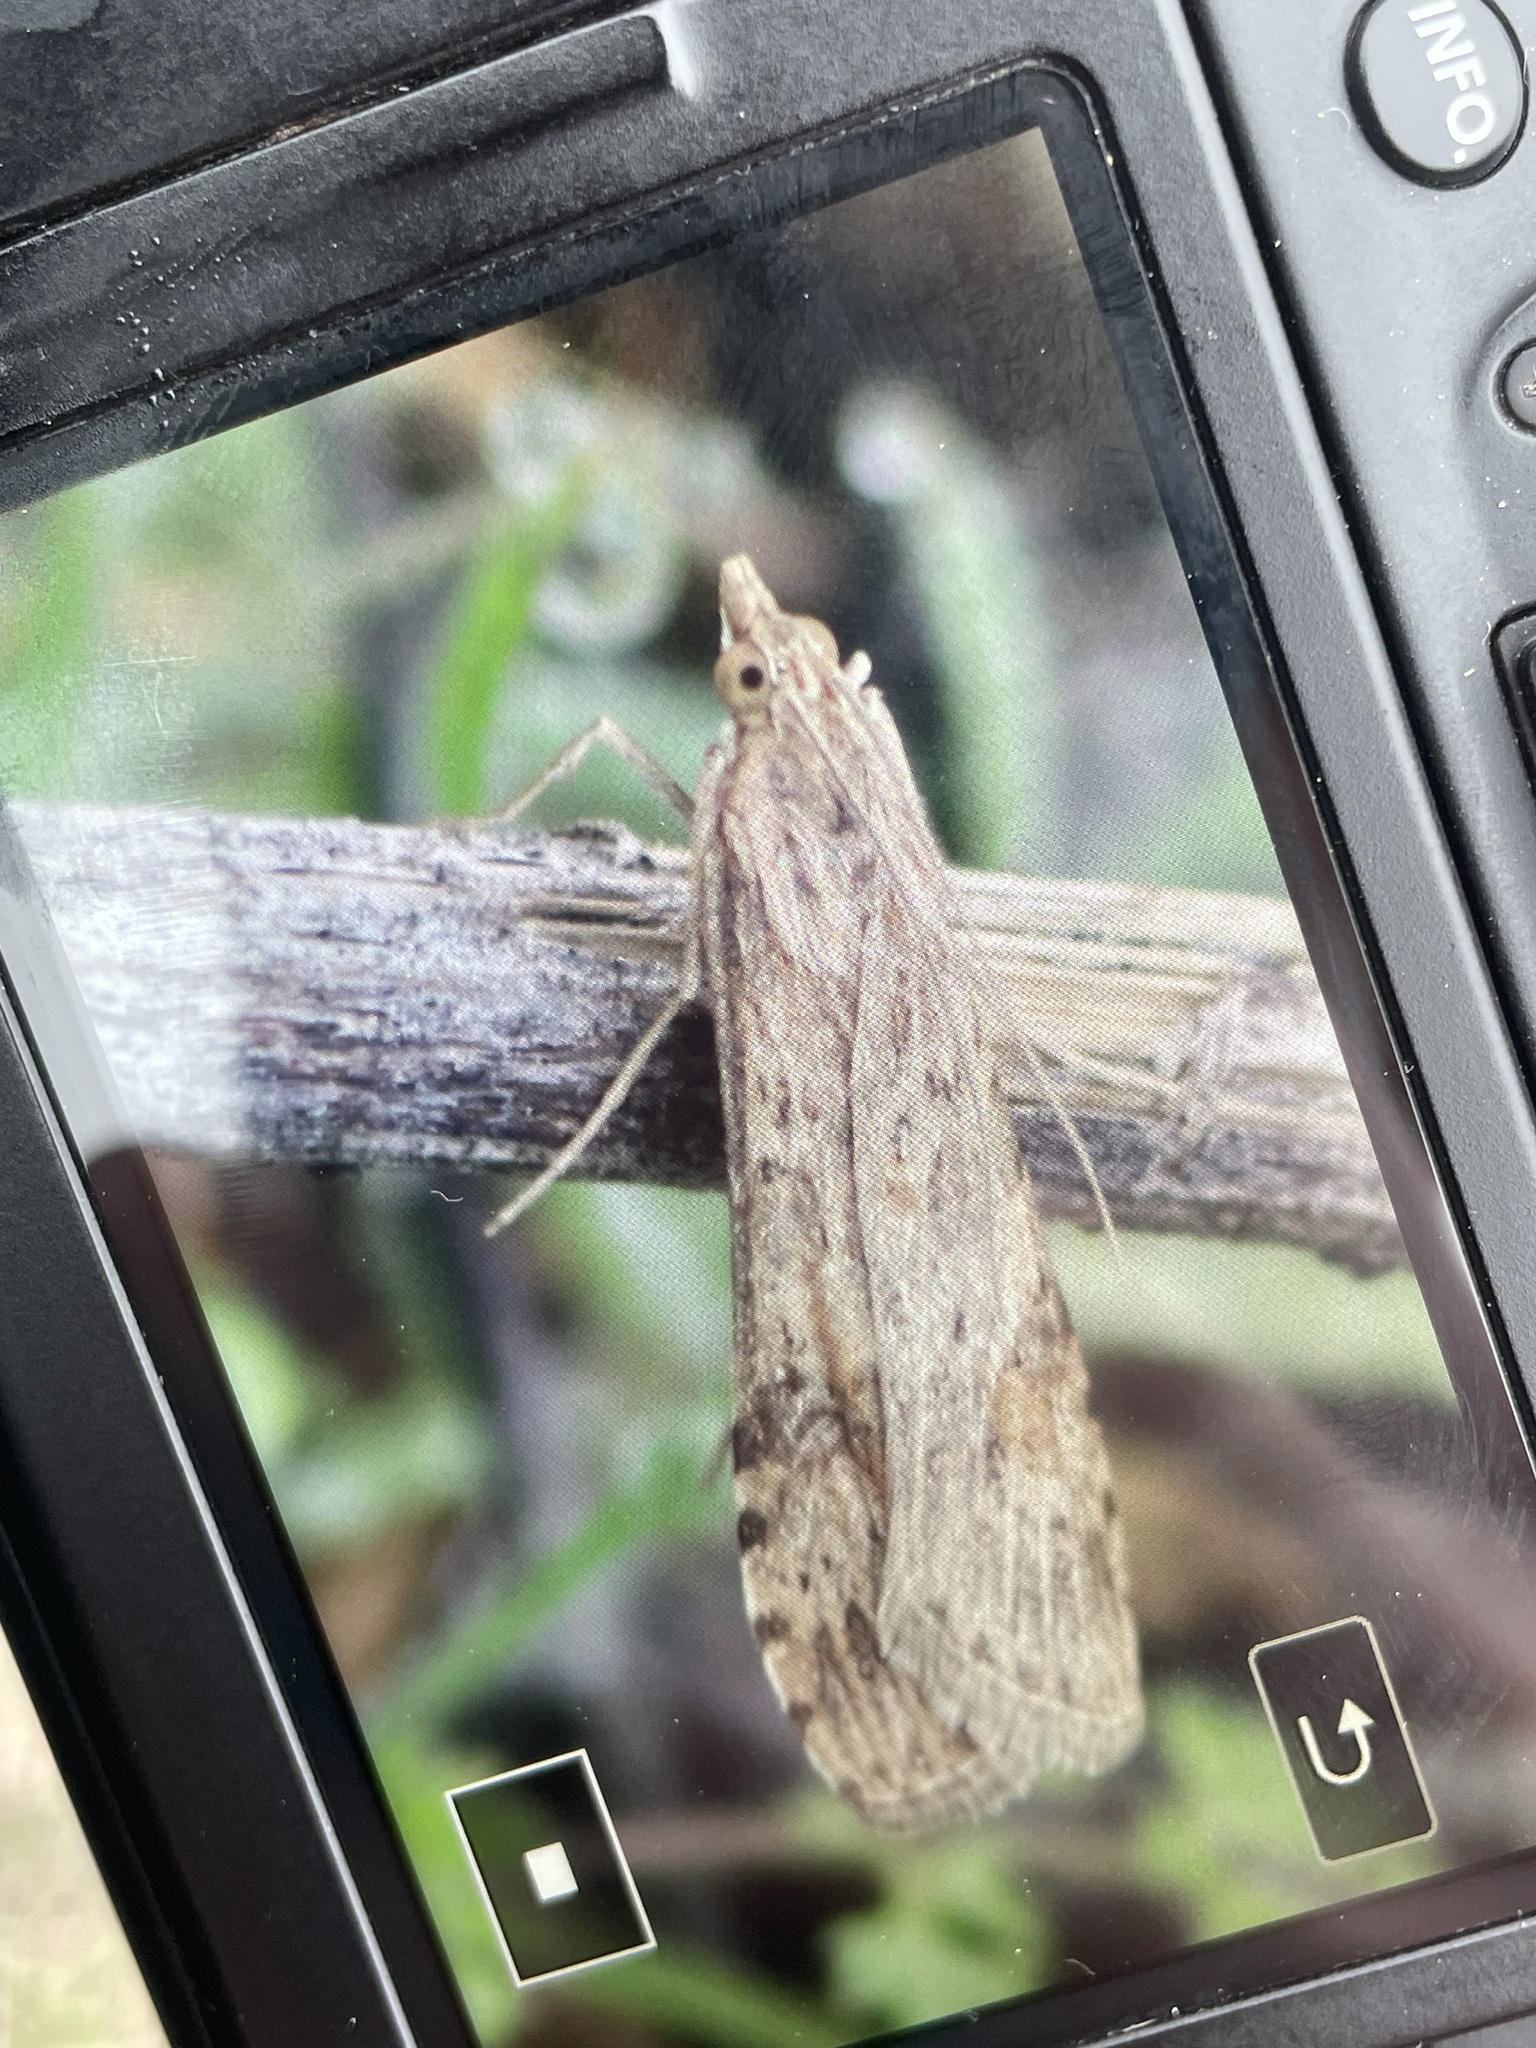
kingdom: Animalia
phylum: Arthropoda
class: Insecta
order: Lepidoptera
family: Crambidae
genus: Nomophila
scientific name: Nomophila nearctica
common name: American rush veneer
